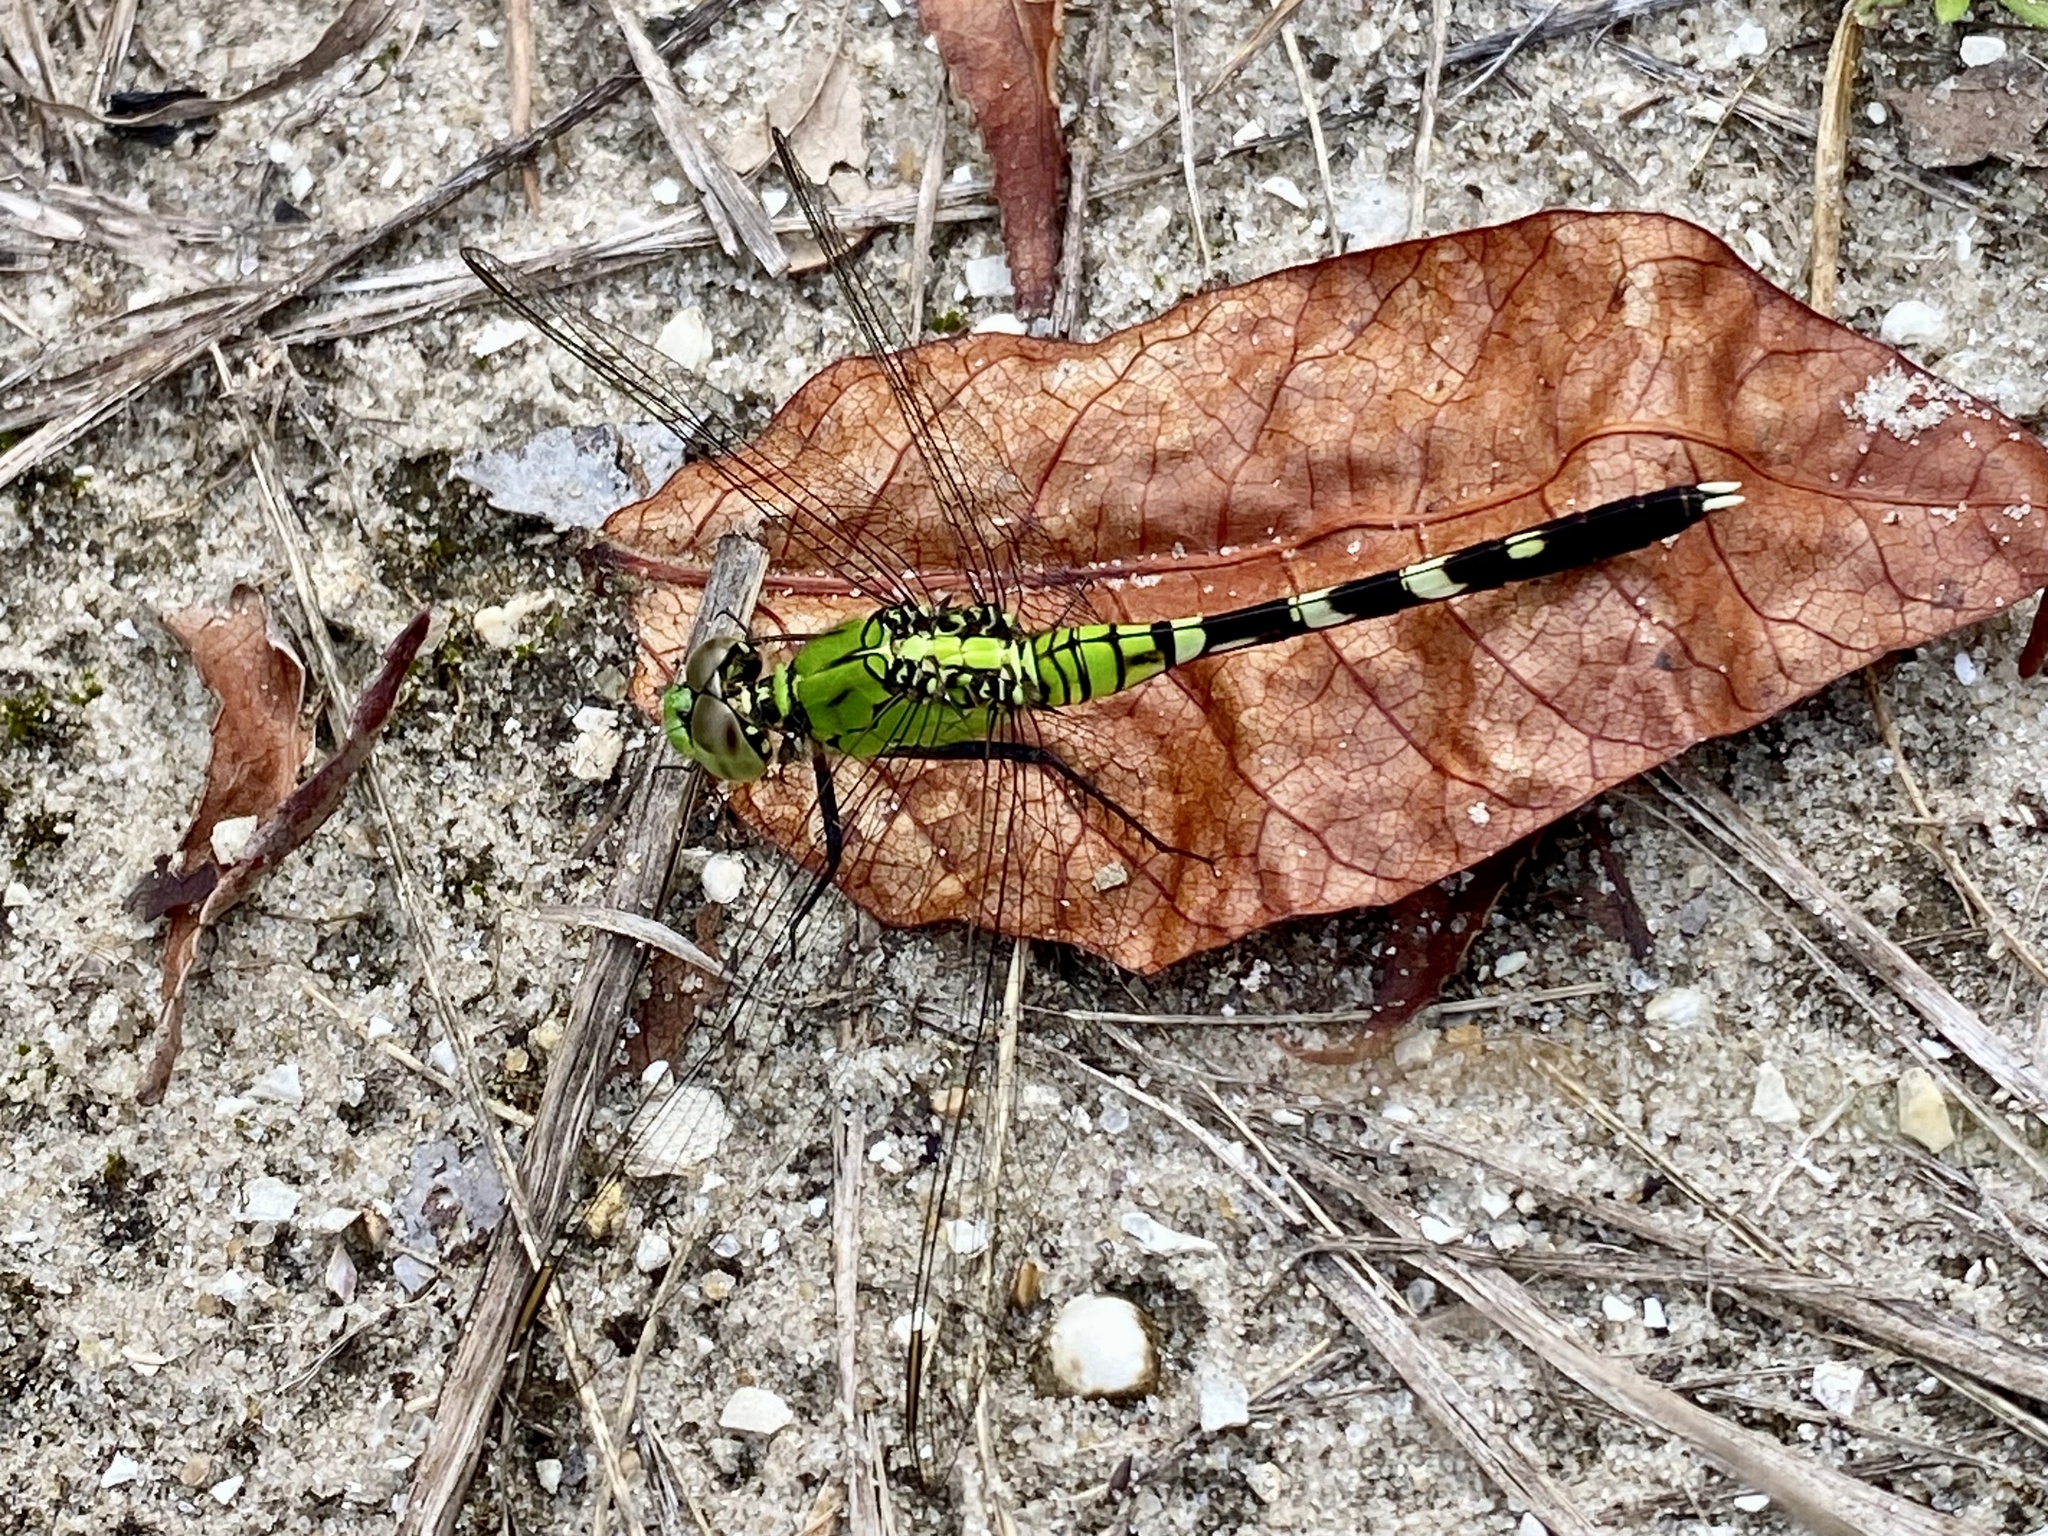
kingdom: Animalia
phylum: Arthropoda
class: Insecta
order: Odonata
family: Libellulidae
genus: Erythemis
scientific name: Erythemis simplicicollis
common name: Eastern pondhawk
